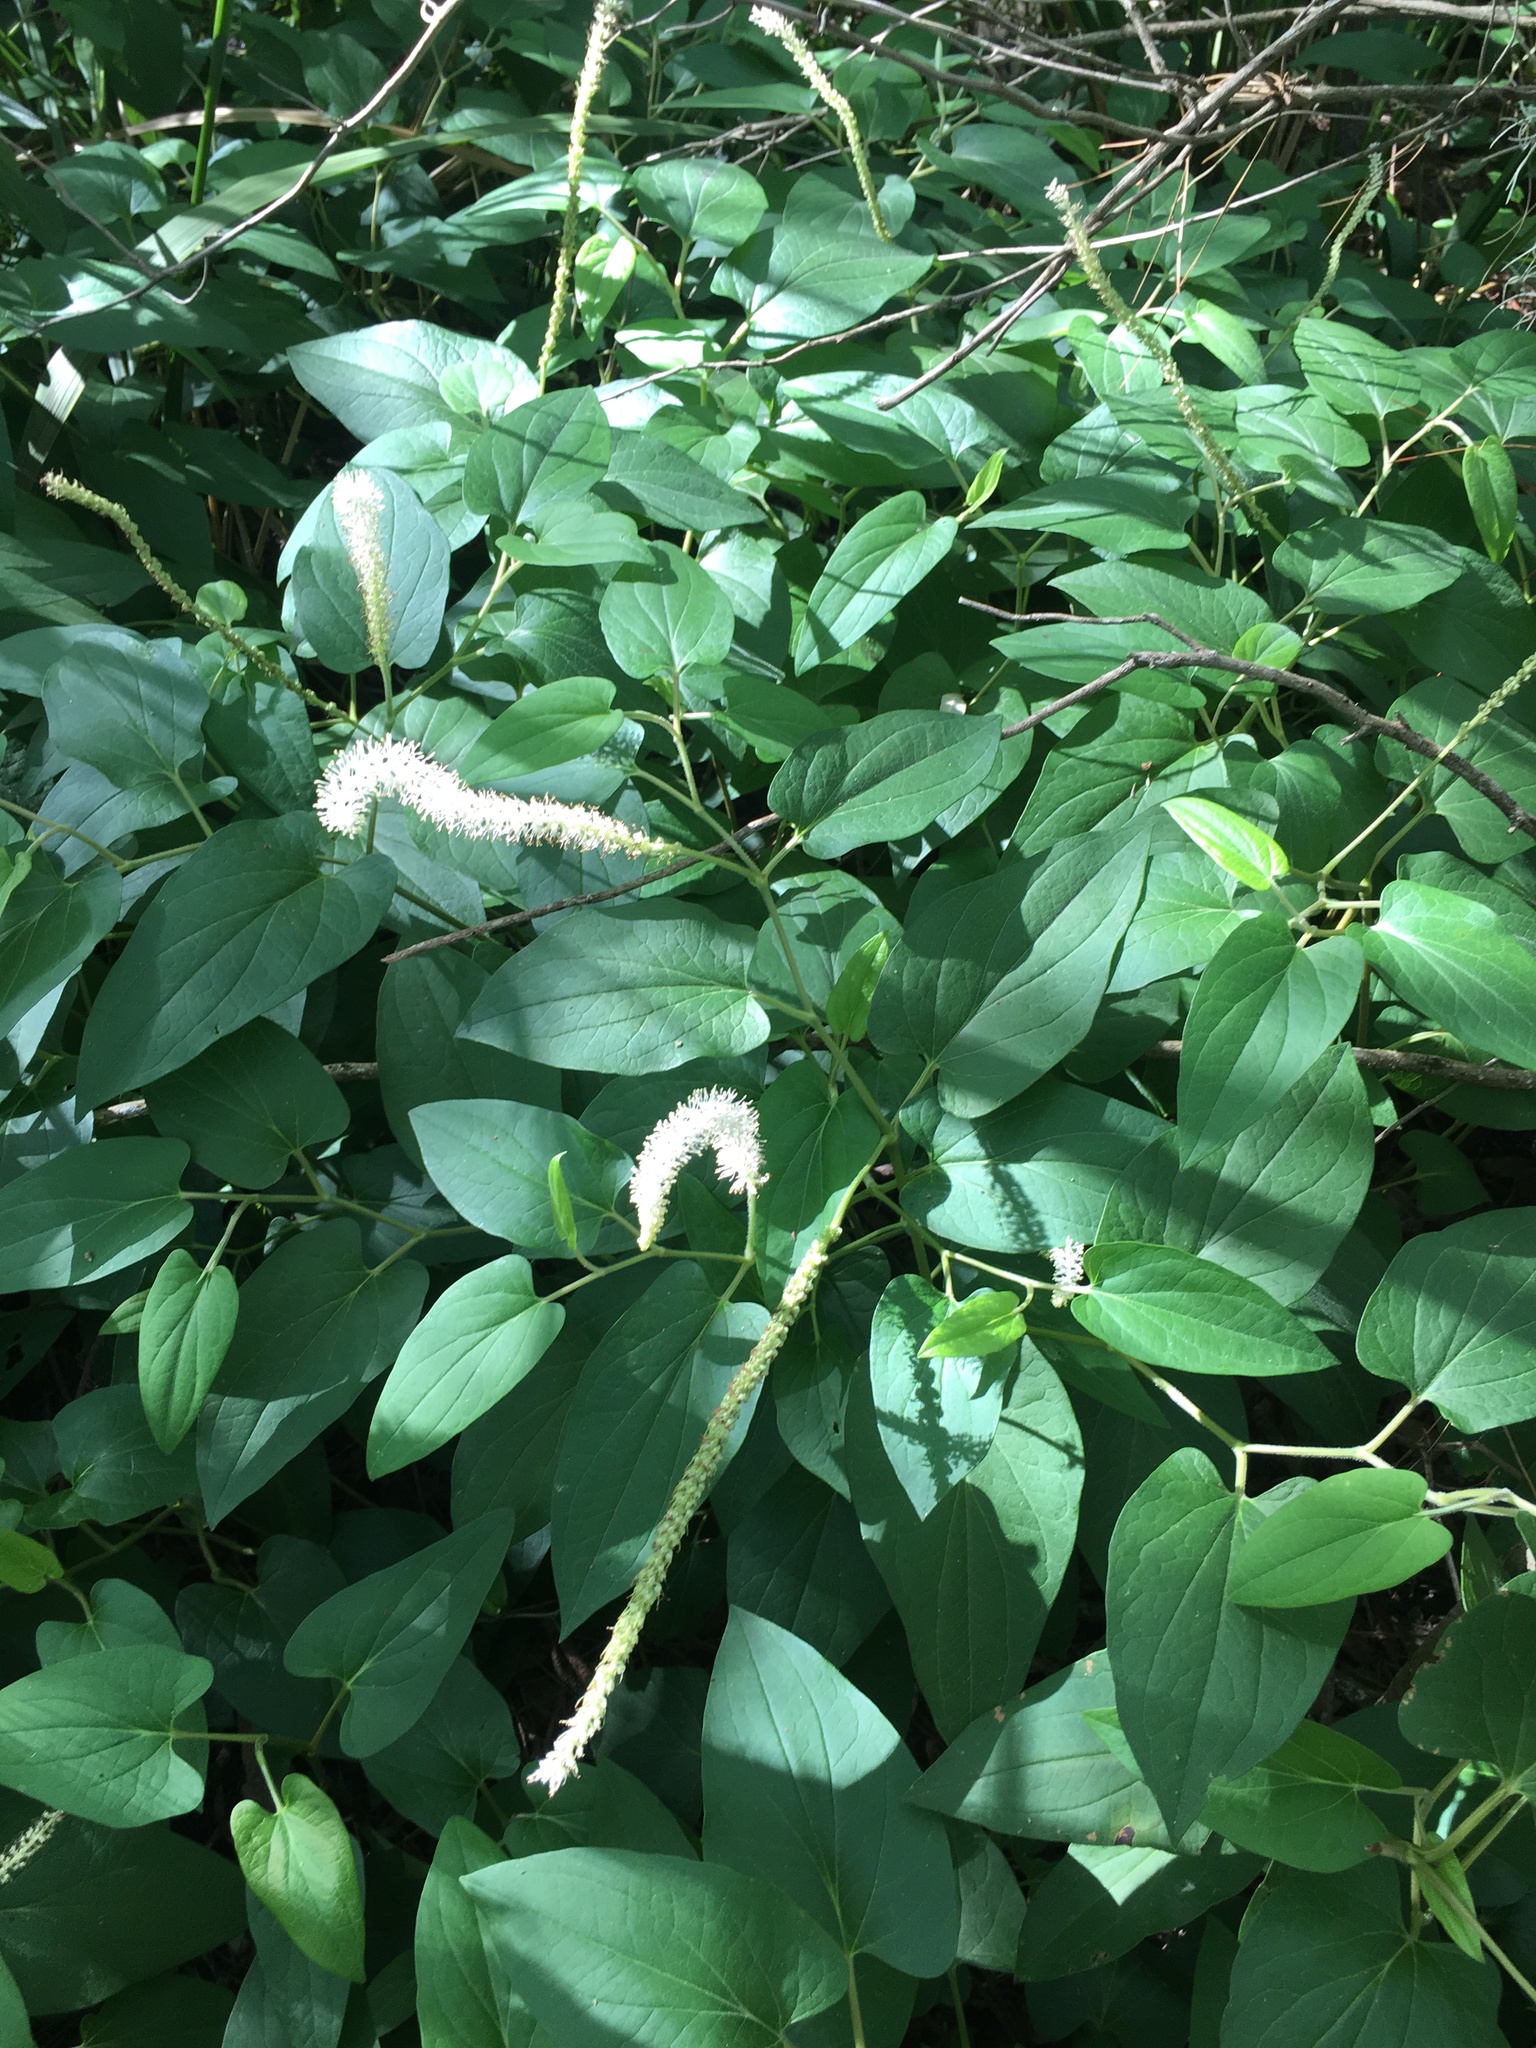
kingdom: Plantae
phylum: Tracheophyta
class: Magnoliopsida
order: Piperales
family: Saururaceae
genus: Saururus
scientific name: Saururus cernuus
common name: Lizard's-tail
